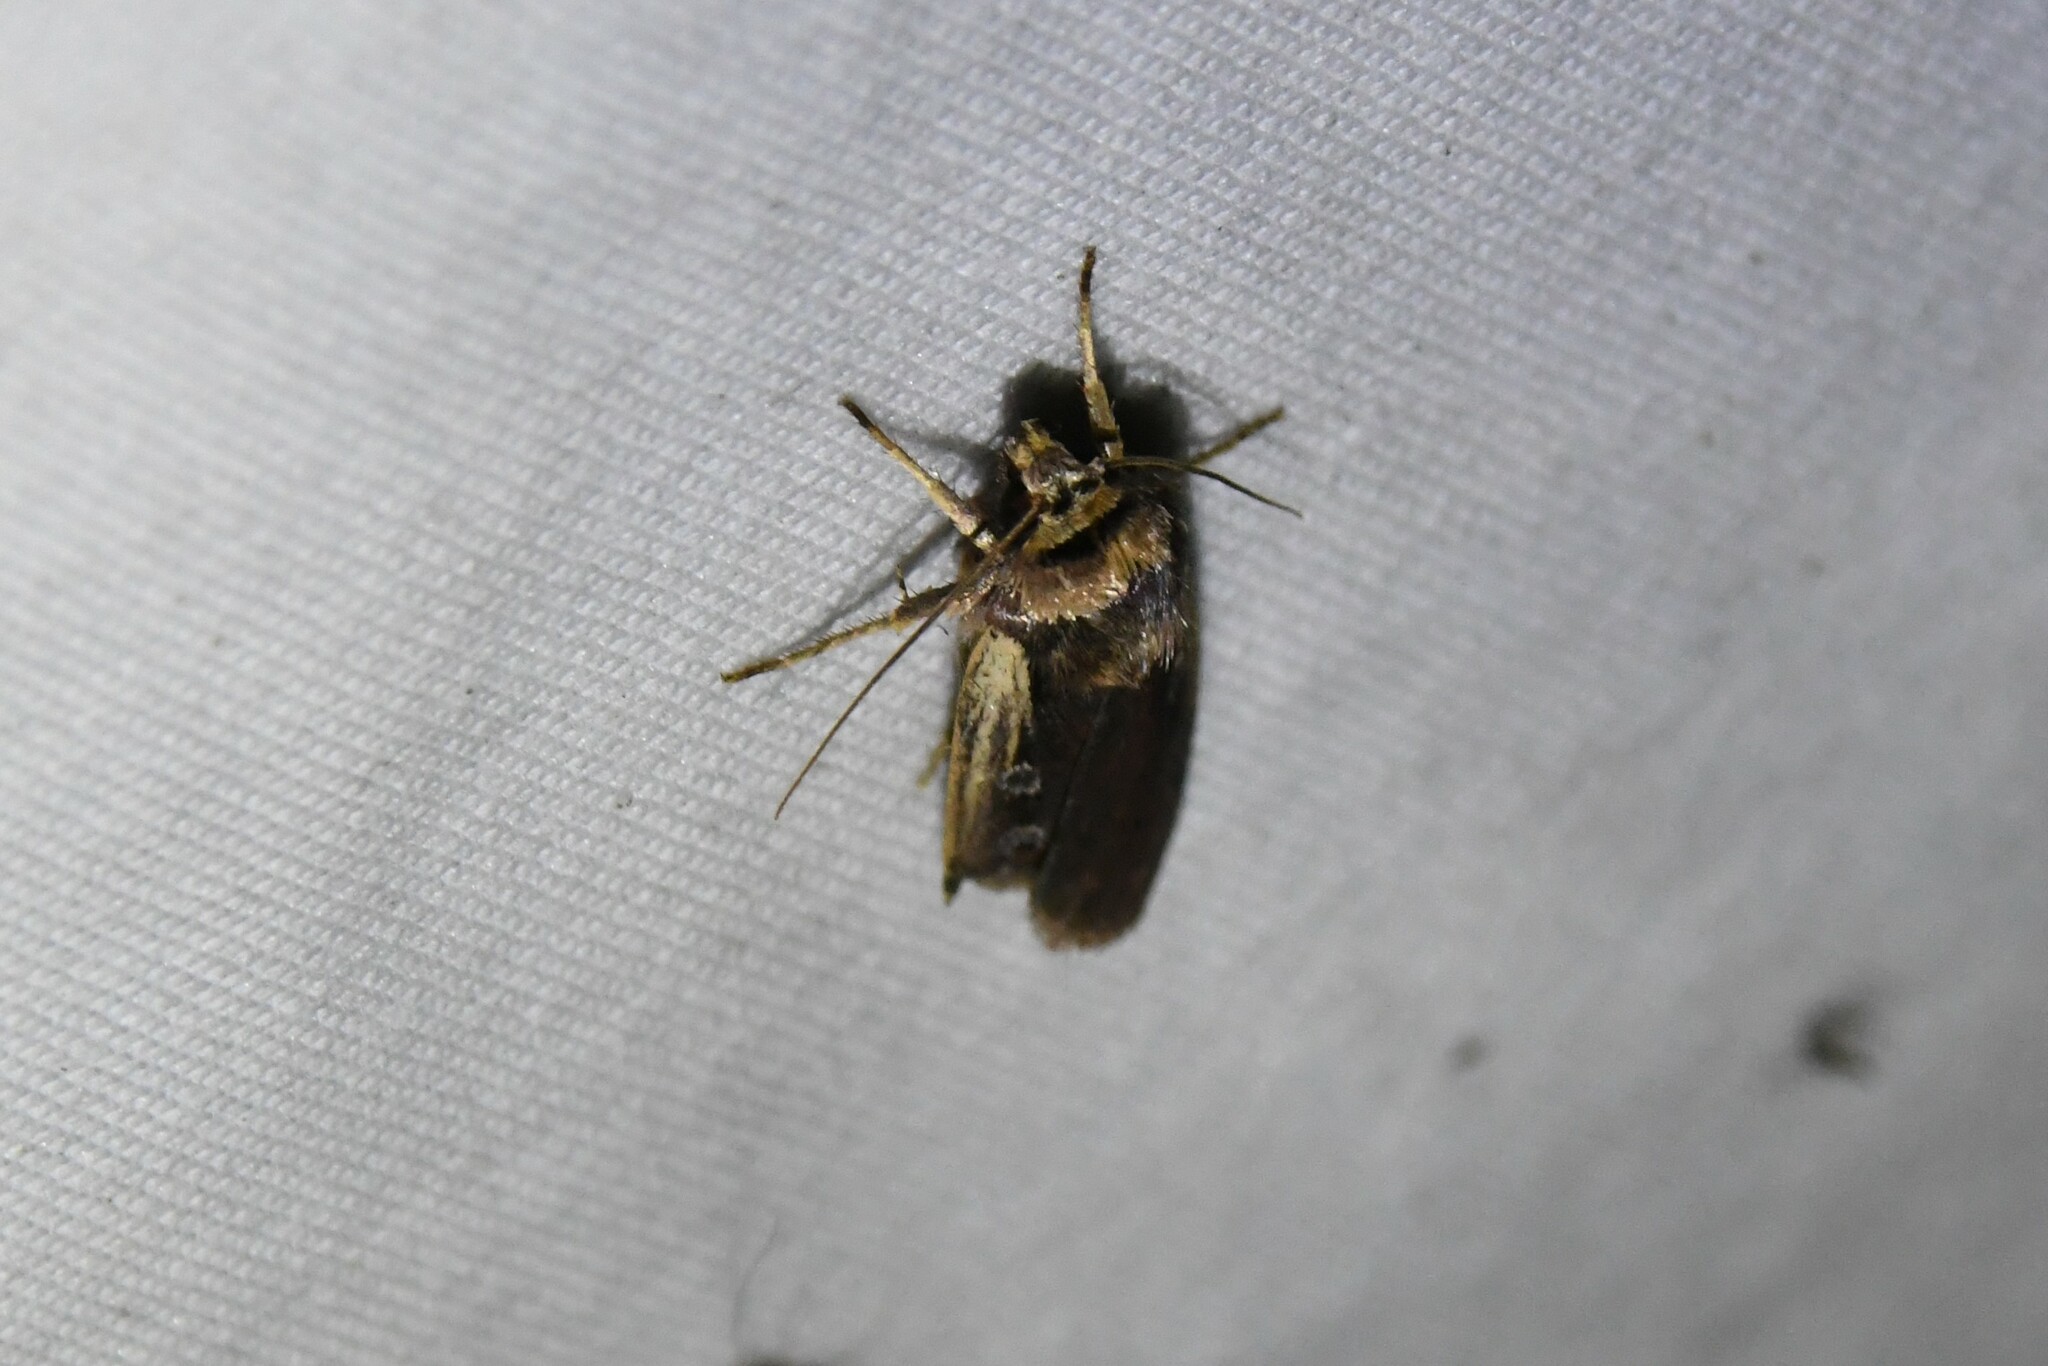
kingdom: Animalia
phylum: Arthropoda
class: Insecta
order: Lepidoptera
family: Noctuidae
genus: Ochropleura
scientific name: Ochropleura implecta
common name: Flame-shouldered dart
